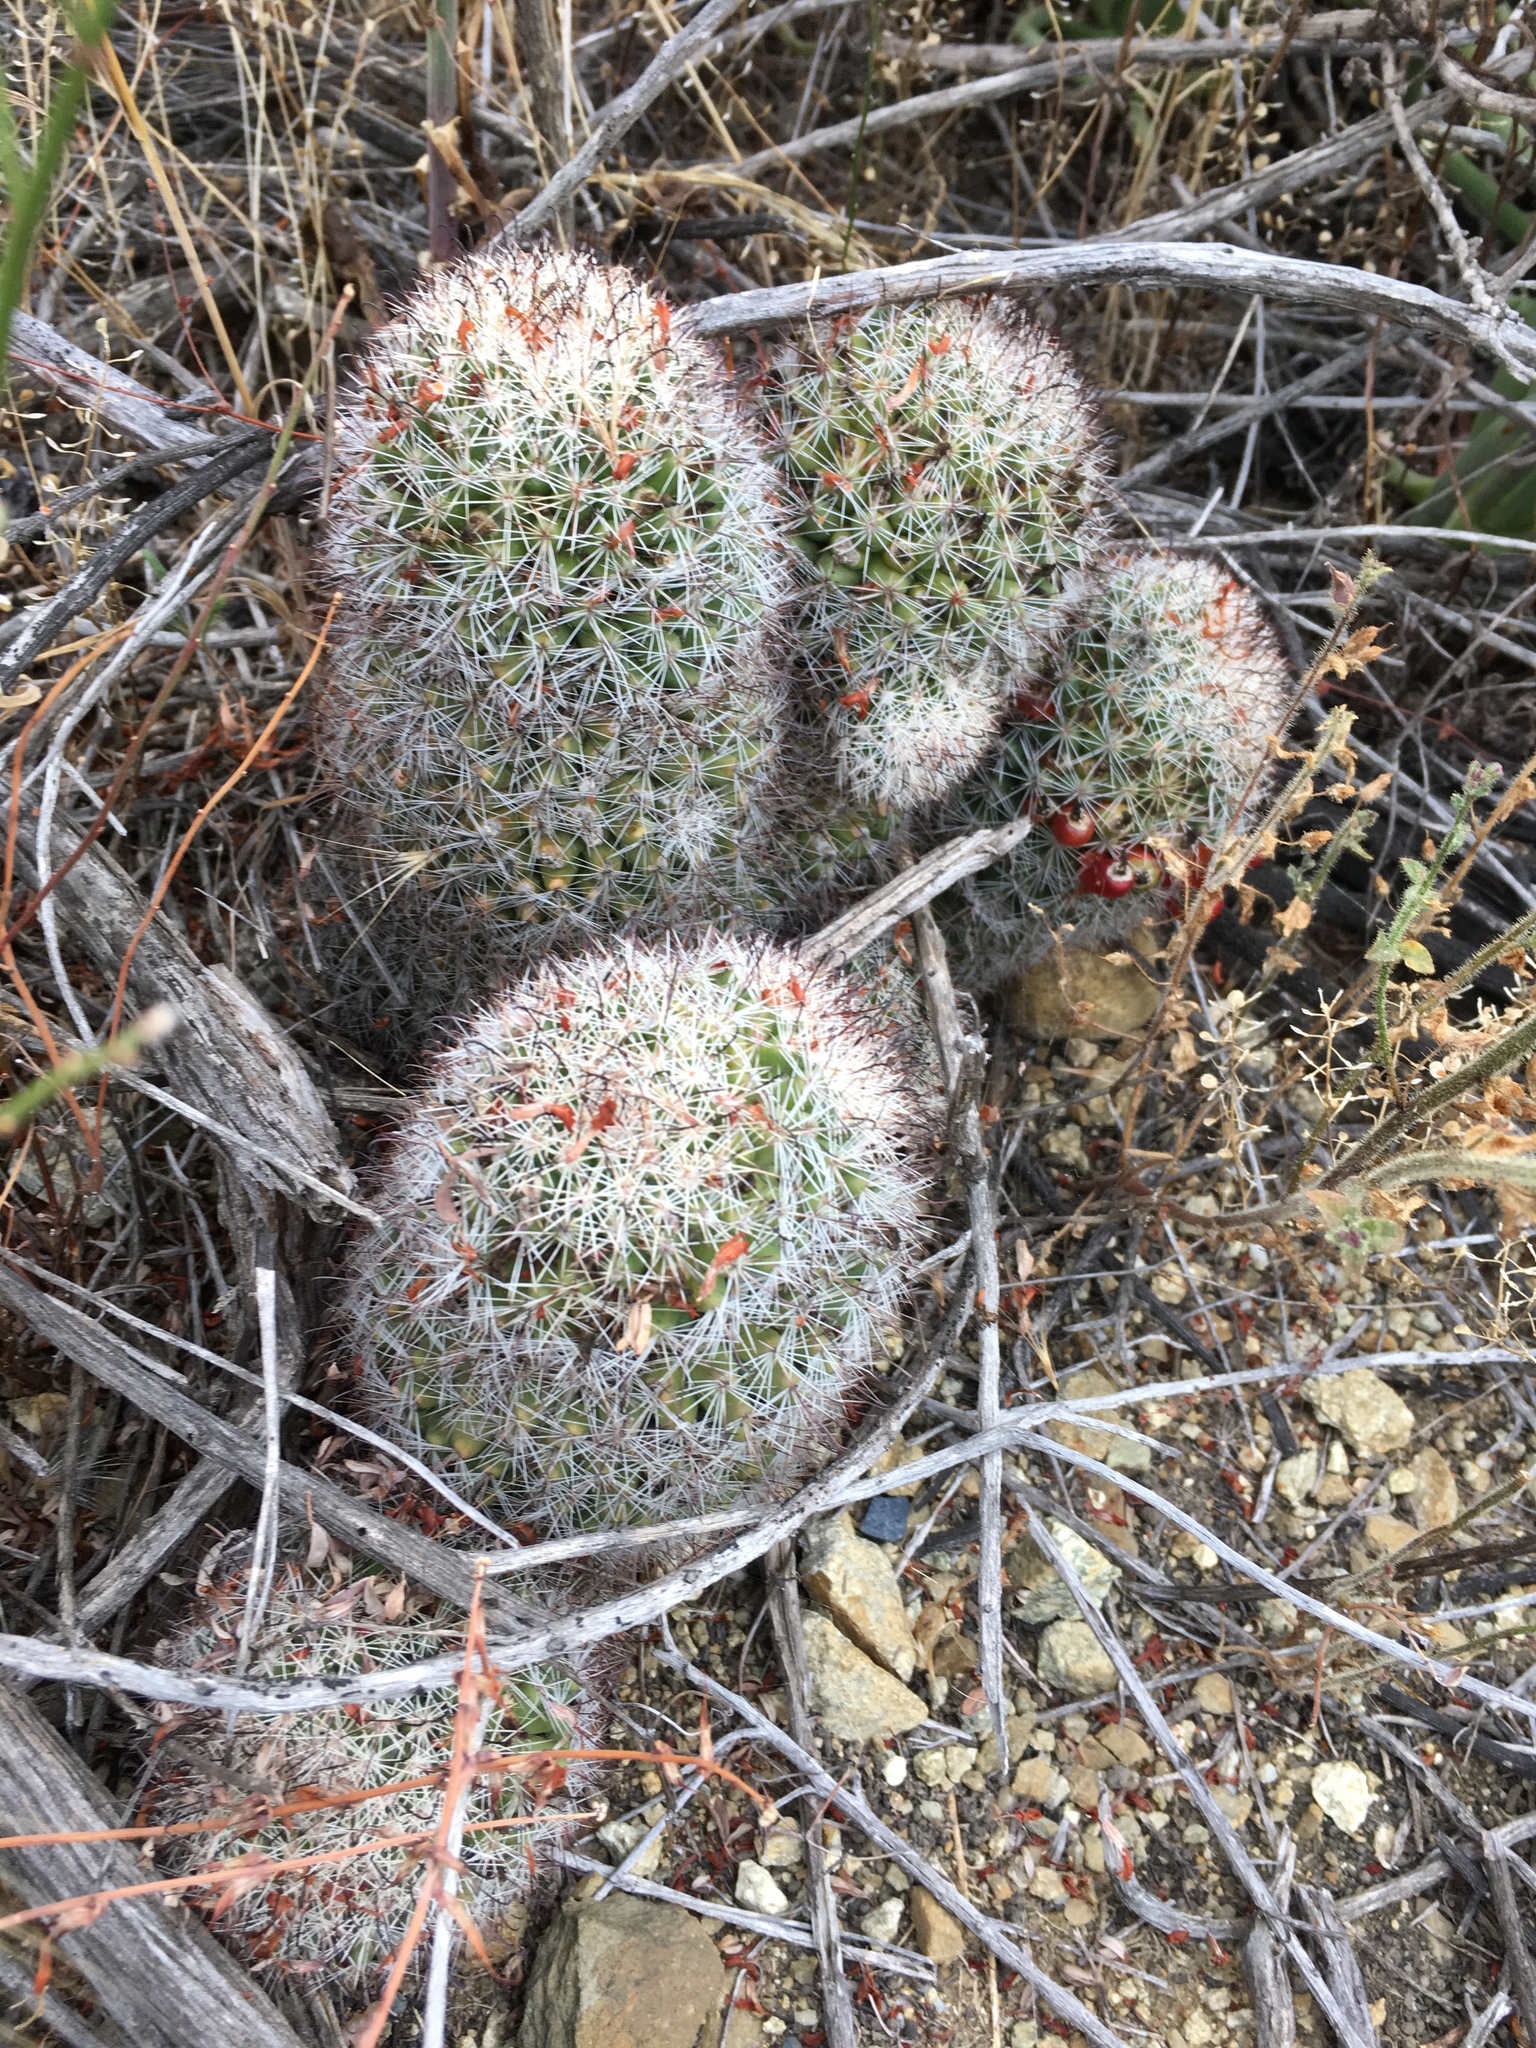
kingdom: Plantae
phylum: Tracheophyta
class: Magnoliopsida
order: Caryophyllales
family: Cactaceae
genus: Cochemiea
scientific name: Cochemiea dioica
